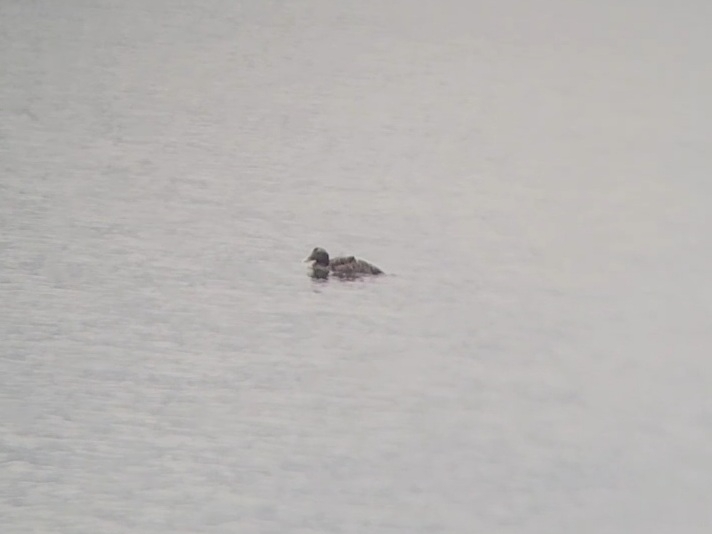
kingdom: Animalia
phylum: Chordata
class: Aves
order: Anseriformes
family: Anatidae
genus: Somateria
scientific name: Somateria mollissima
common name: Common eider
